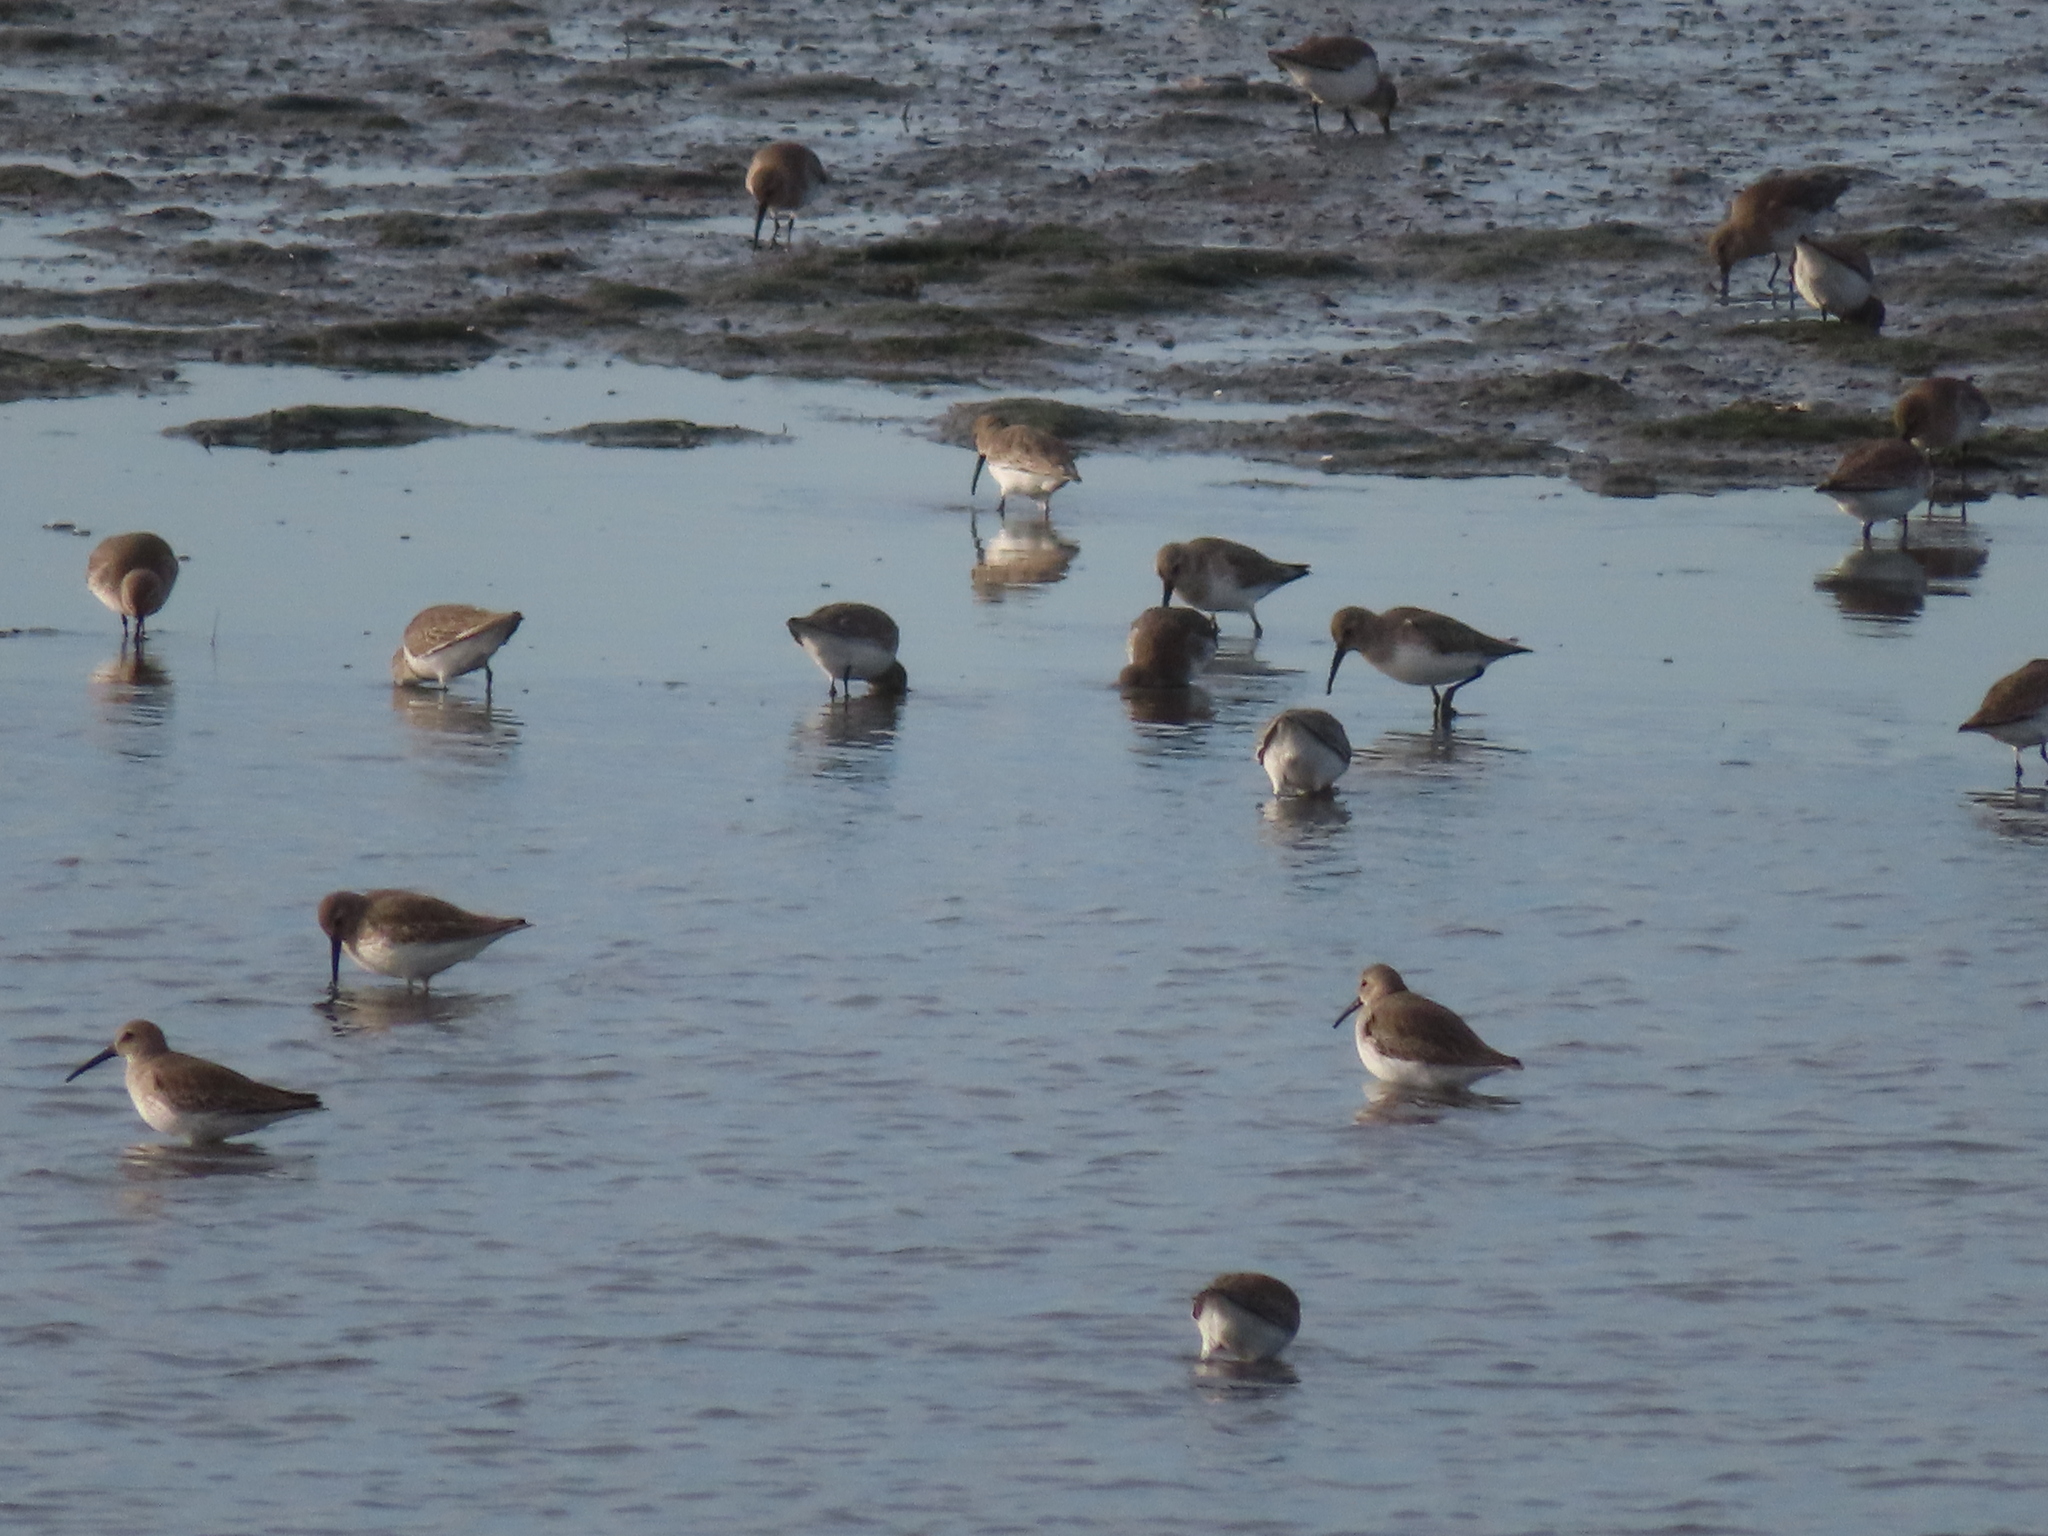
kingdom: Animalia
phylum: Chordata
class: Aves
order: Charadriiformes
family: Scolopacidae
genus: Calidris
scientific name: Calidris alpina
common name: Dunlin
